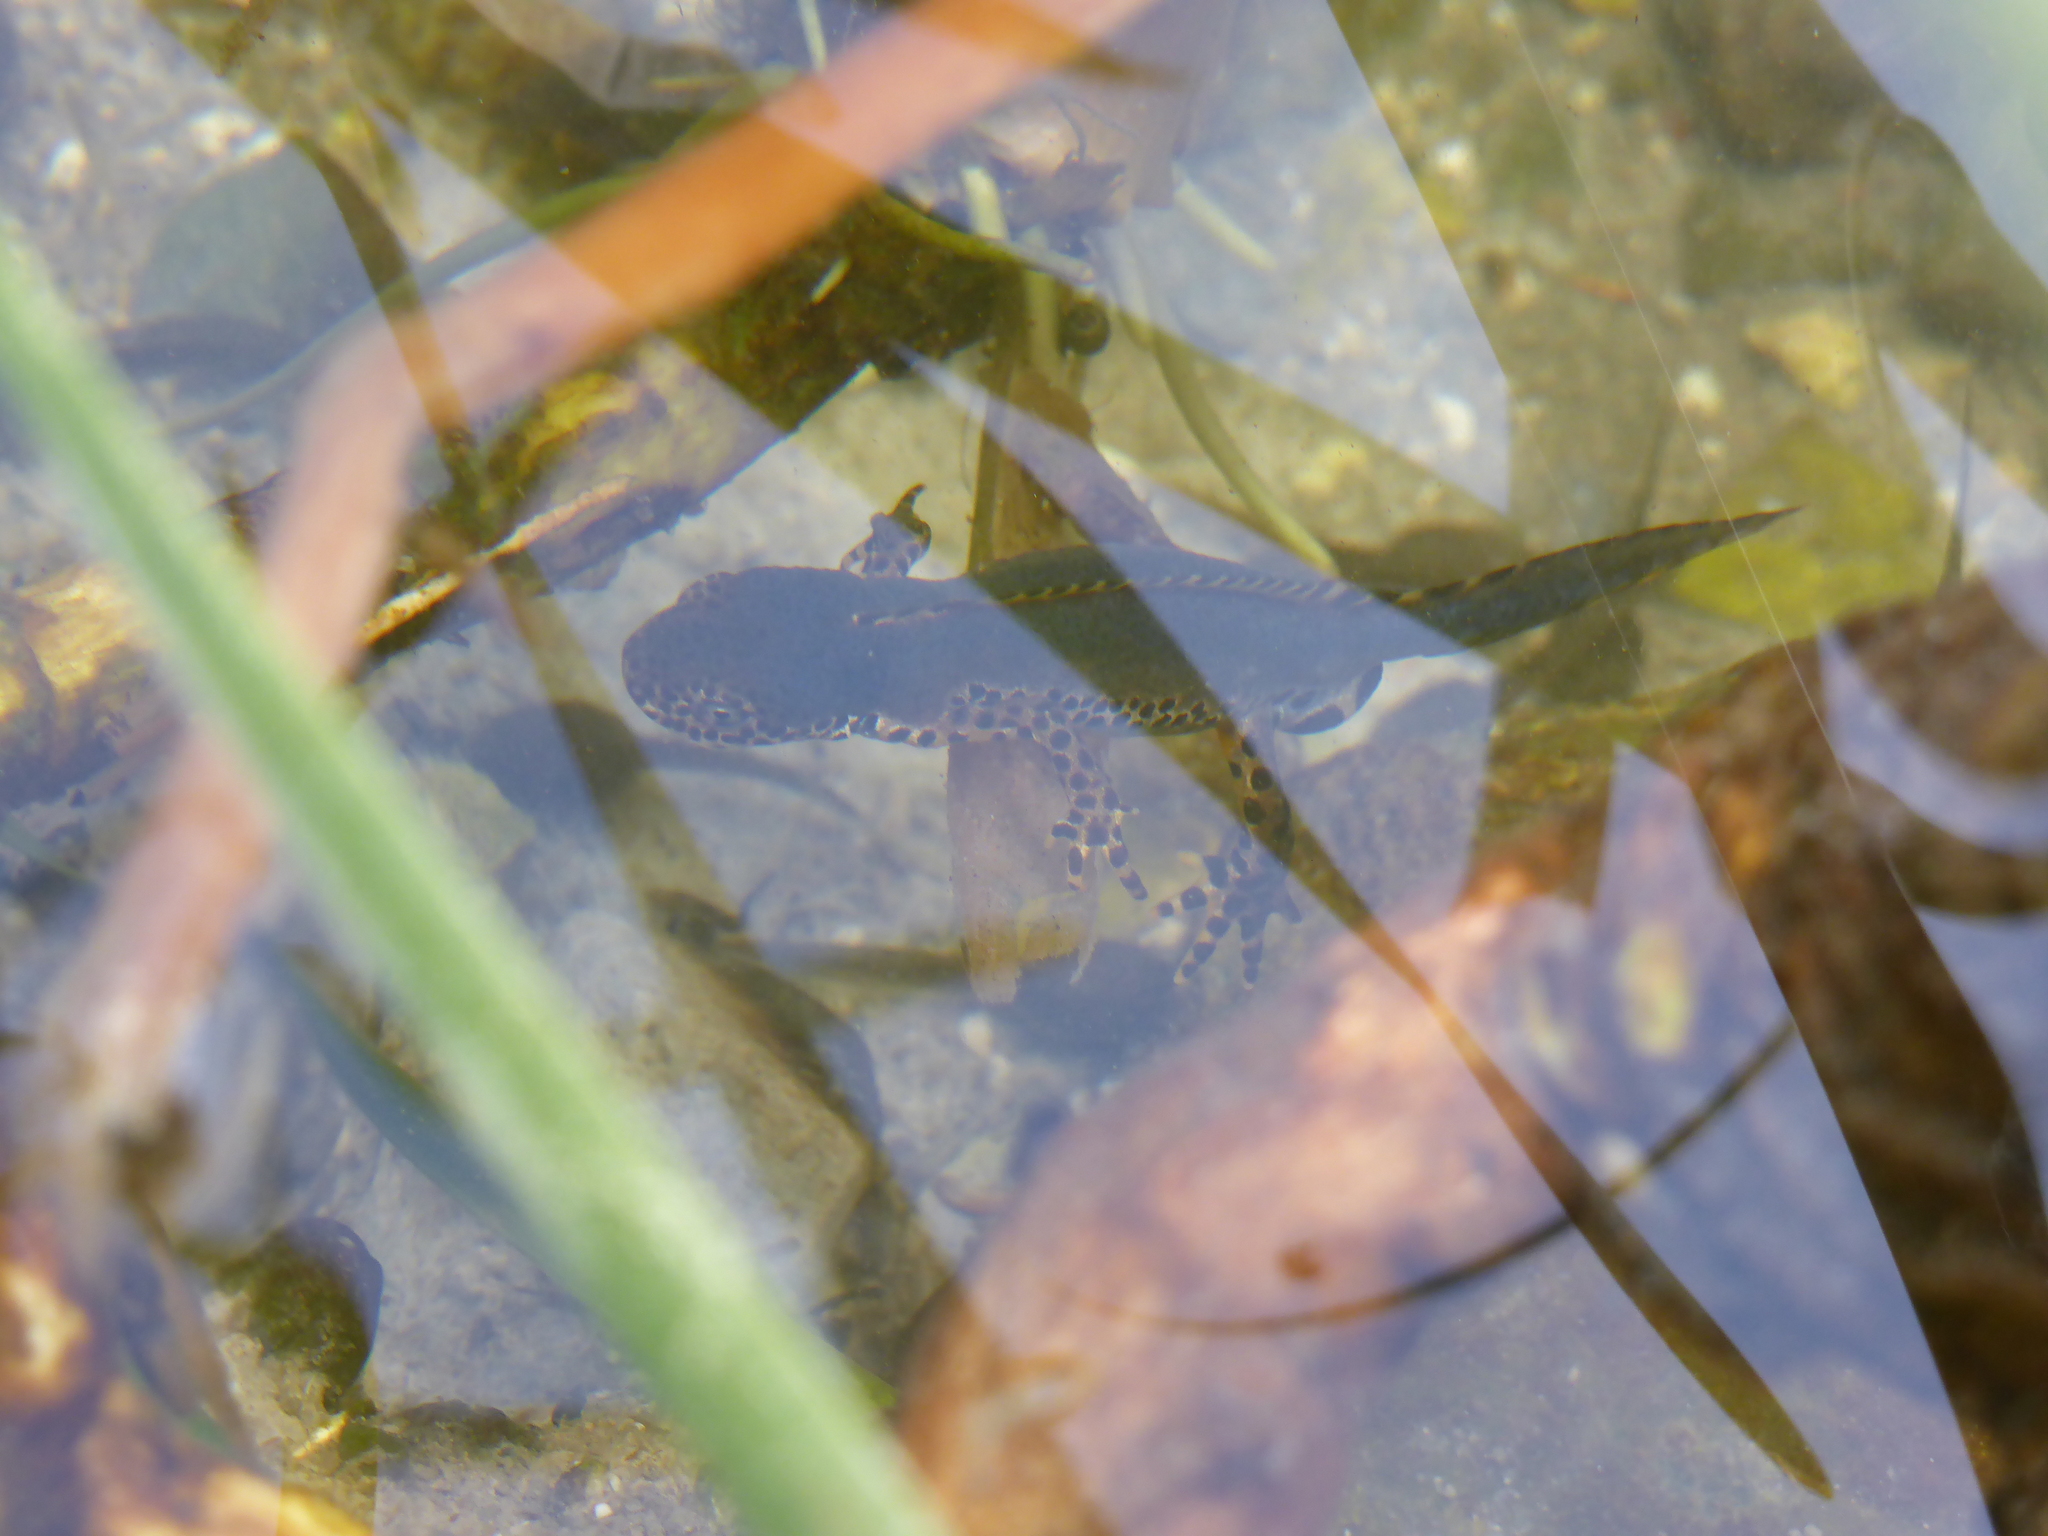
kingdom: Animalia
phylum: Chordata
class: Amphibia
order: Caudata
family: Salamandridae
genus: Ichthyosaura
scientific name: Ichthyosaura alpestris
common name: Alpine newt
